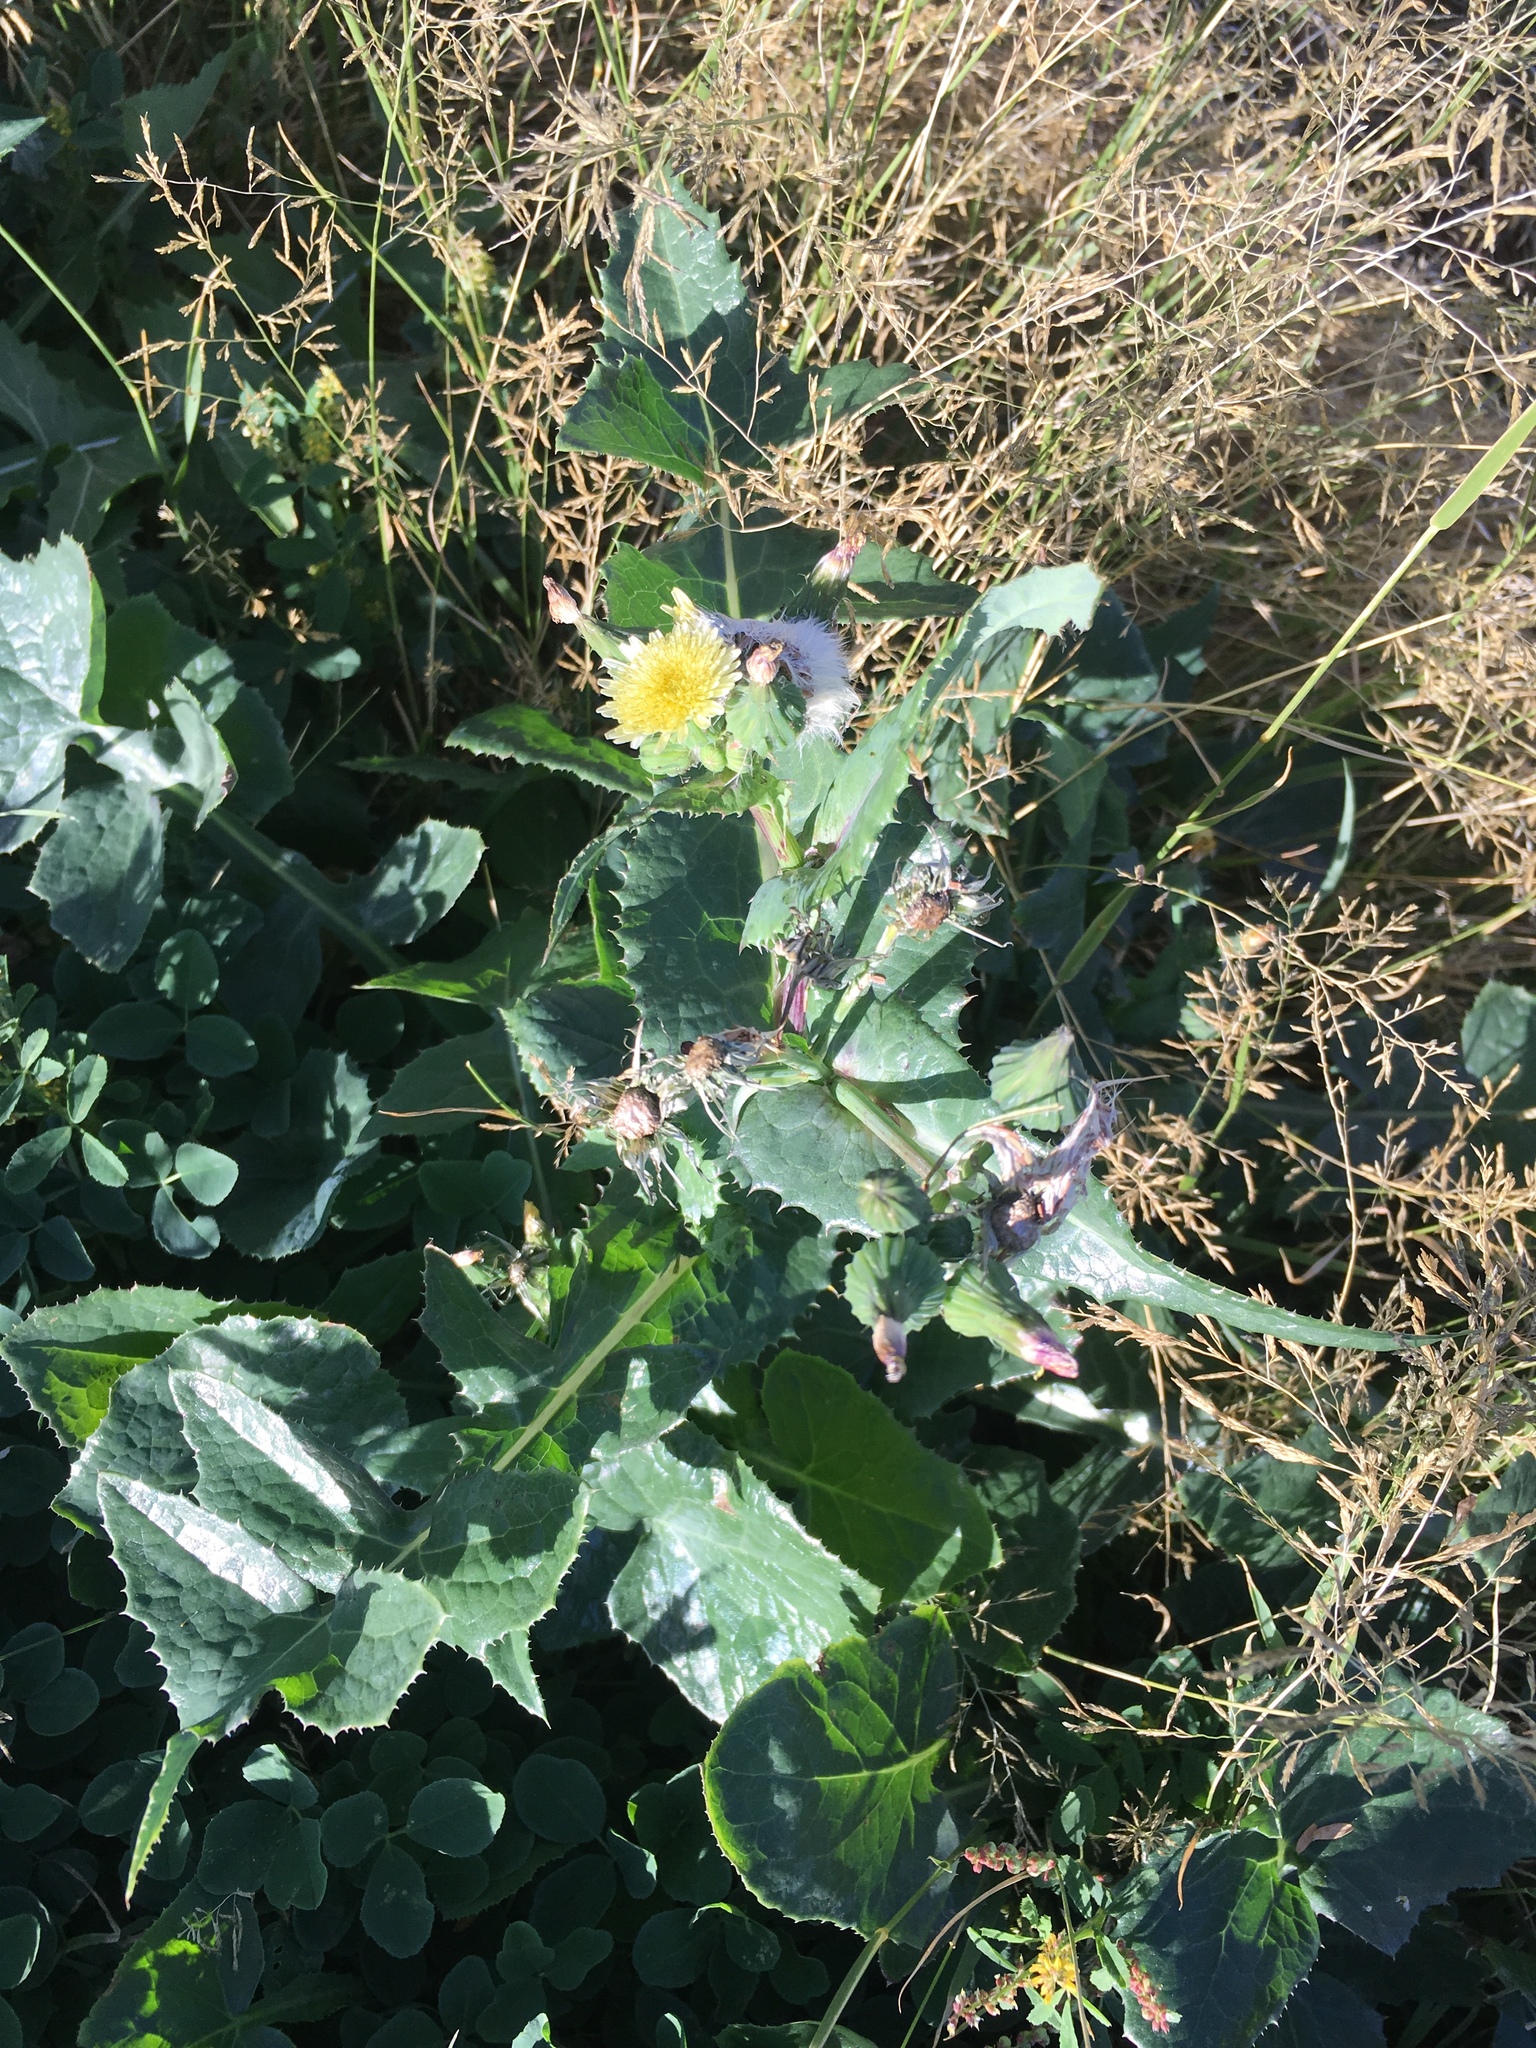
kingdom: Plantae
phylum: Tracheophyta
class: Magnoliopsida
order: Asterales
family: Asteraceae
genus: Sonchus
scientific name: Sonchus oleraceus
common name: Common sowthistle
